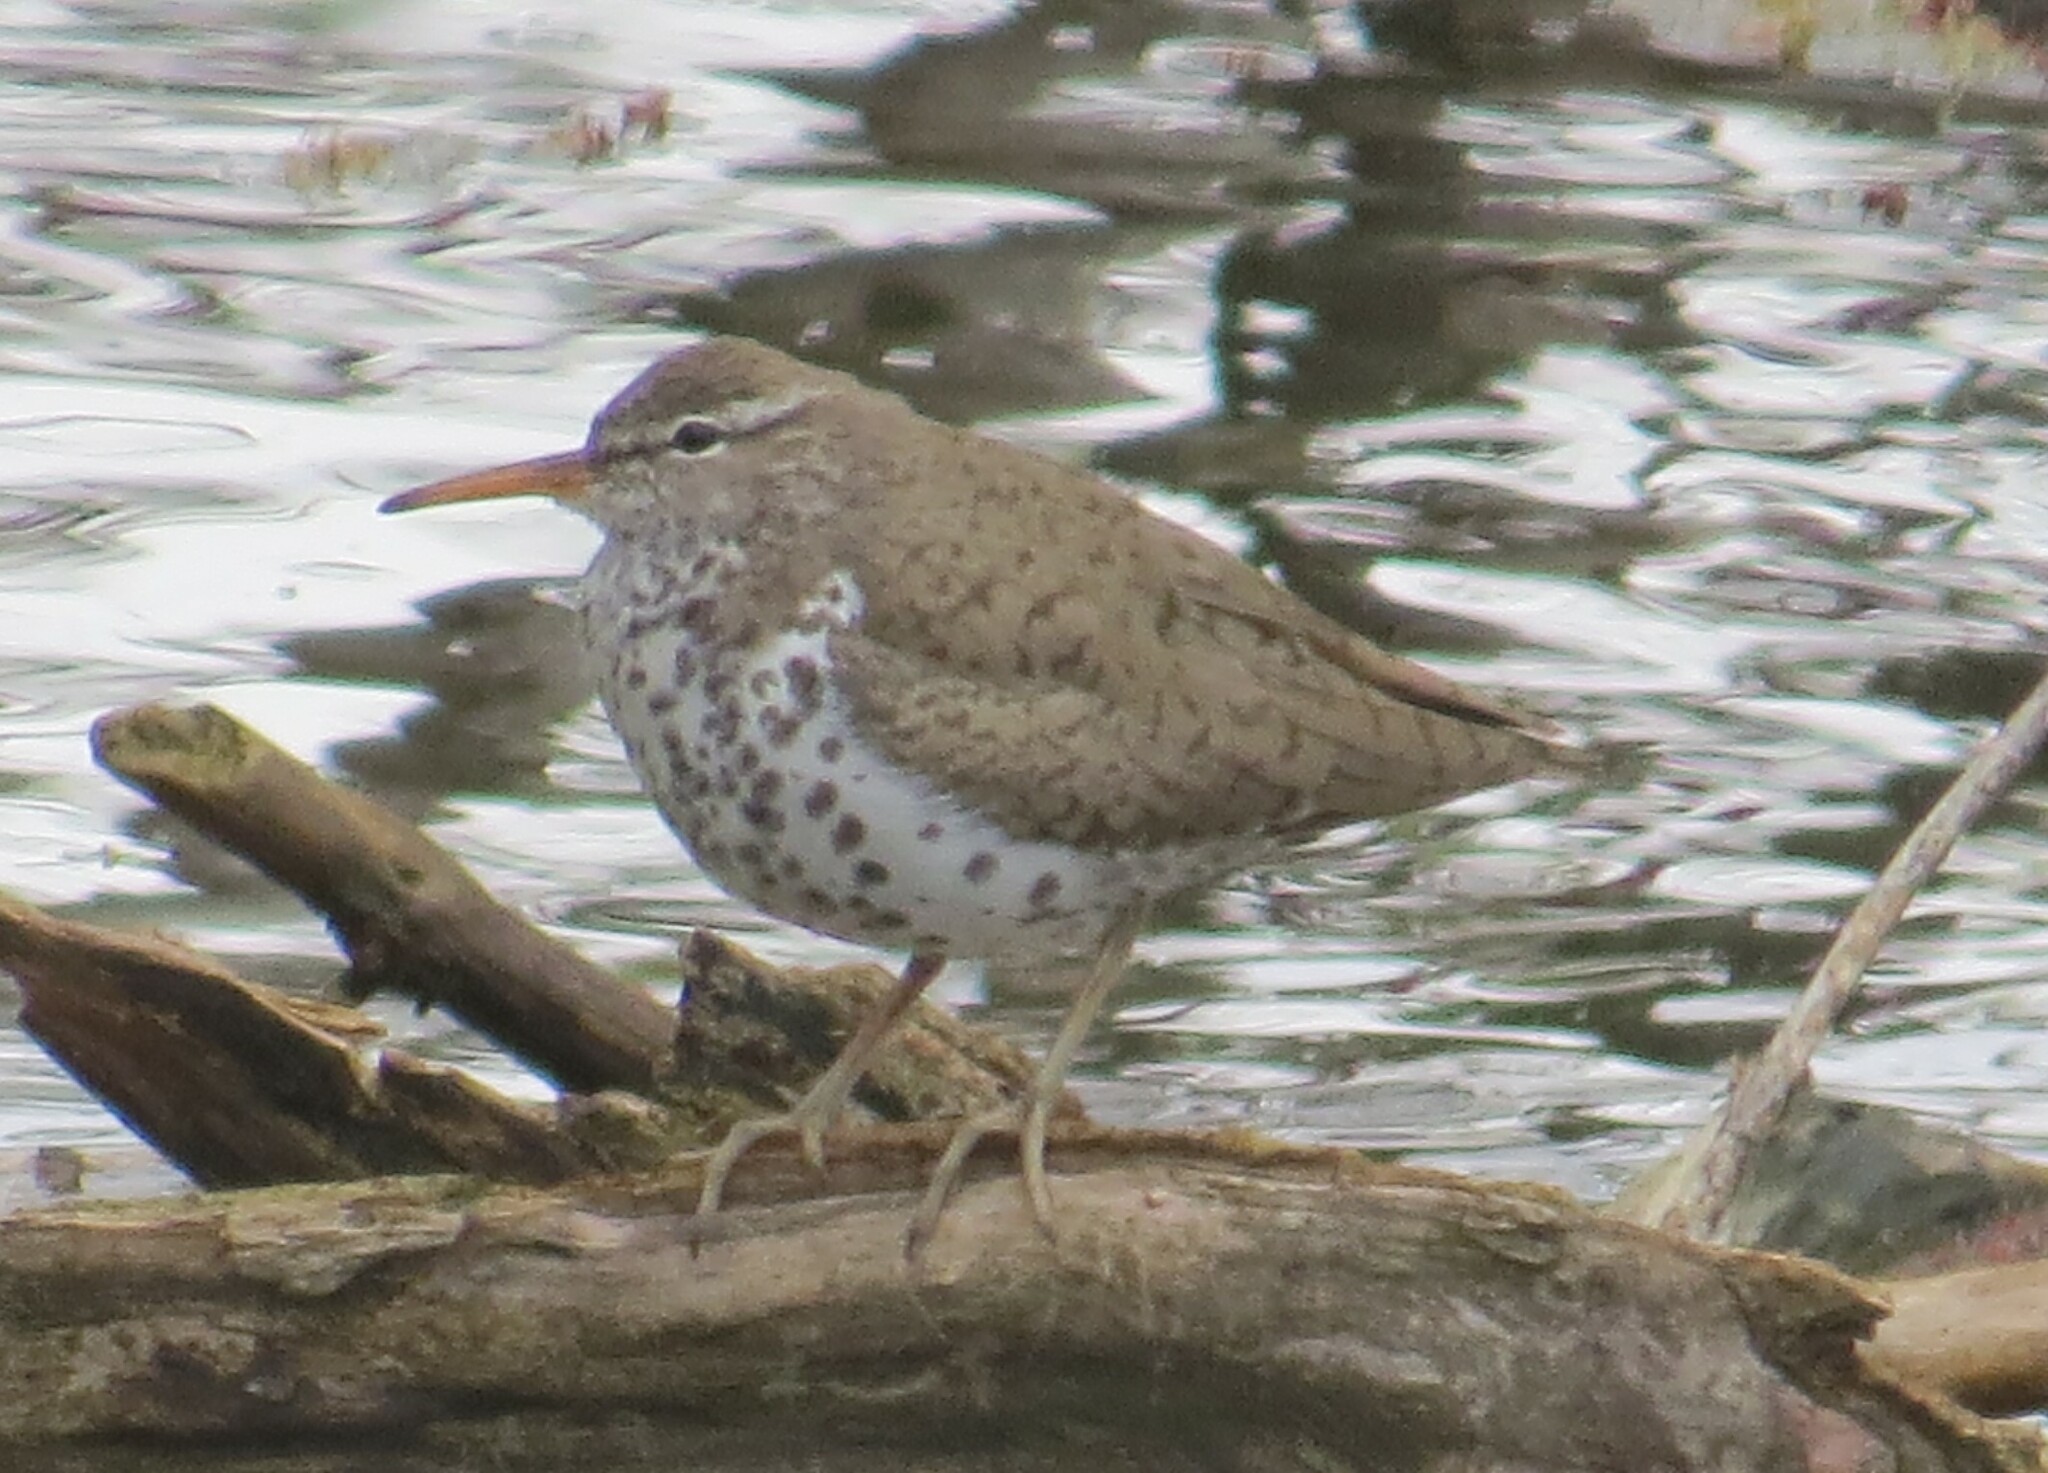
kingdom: Animalia
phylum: Chordata
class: Aves
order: Charadriiformes
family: Scolopacidae
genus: Actitis
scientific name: Actitis macularius
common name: Spotted sandpiper
